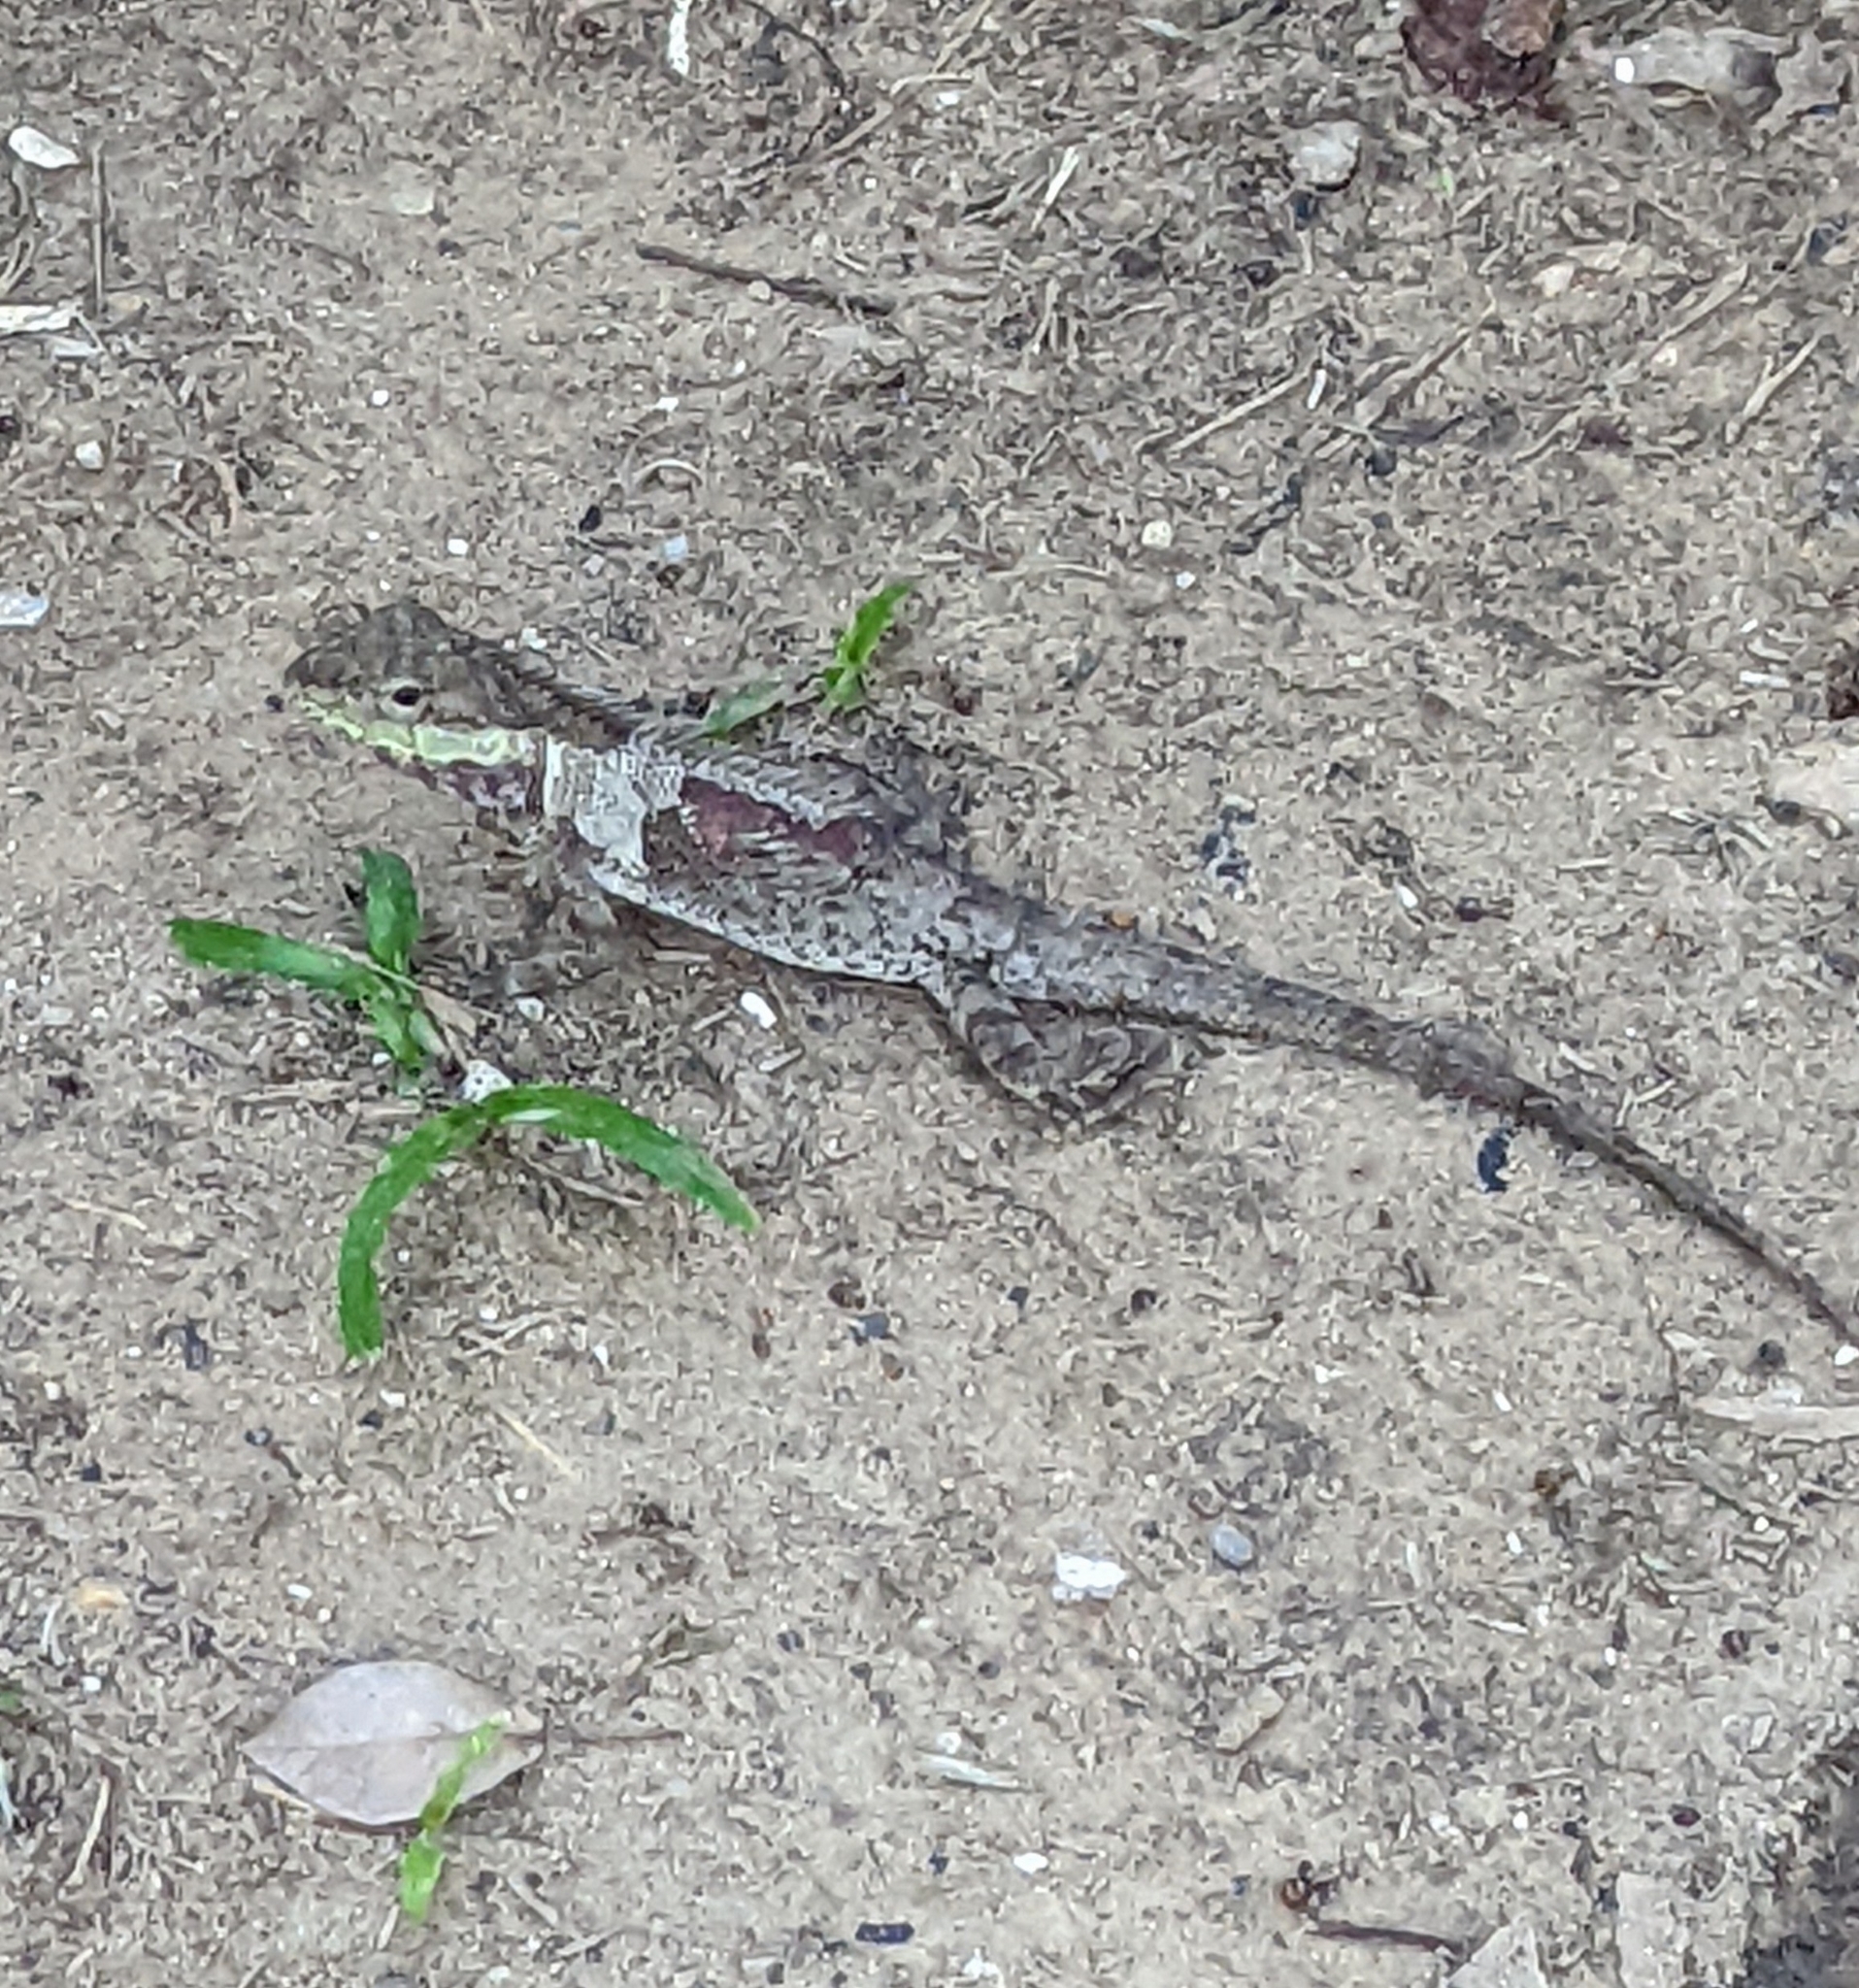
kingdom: Animalia
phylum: Chordata
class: Squamata
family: Agamidae
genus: Calotes
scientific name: Calotes goetzi
